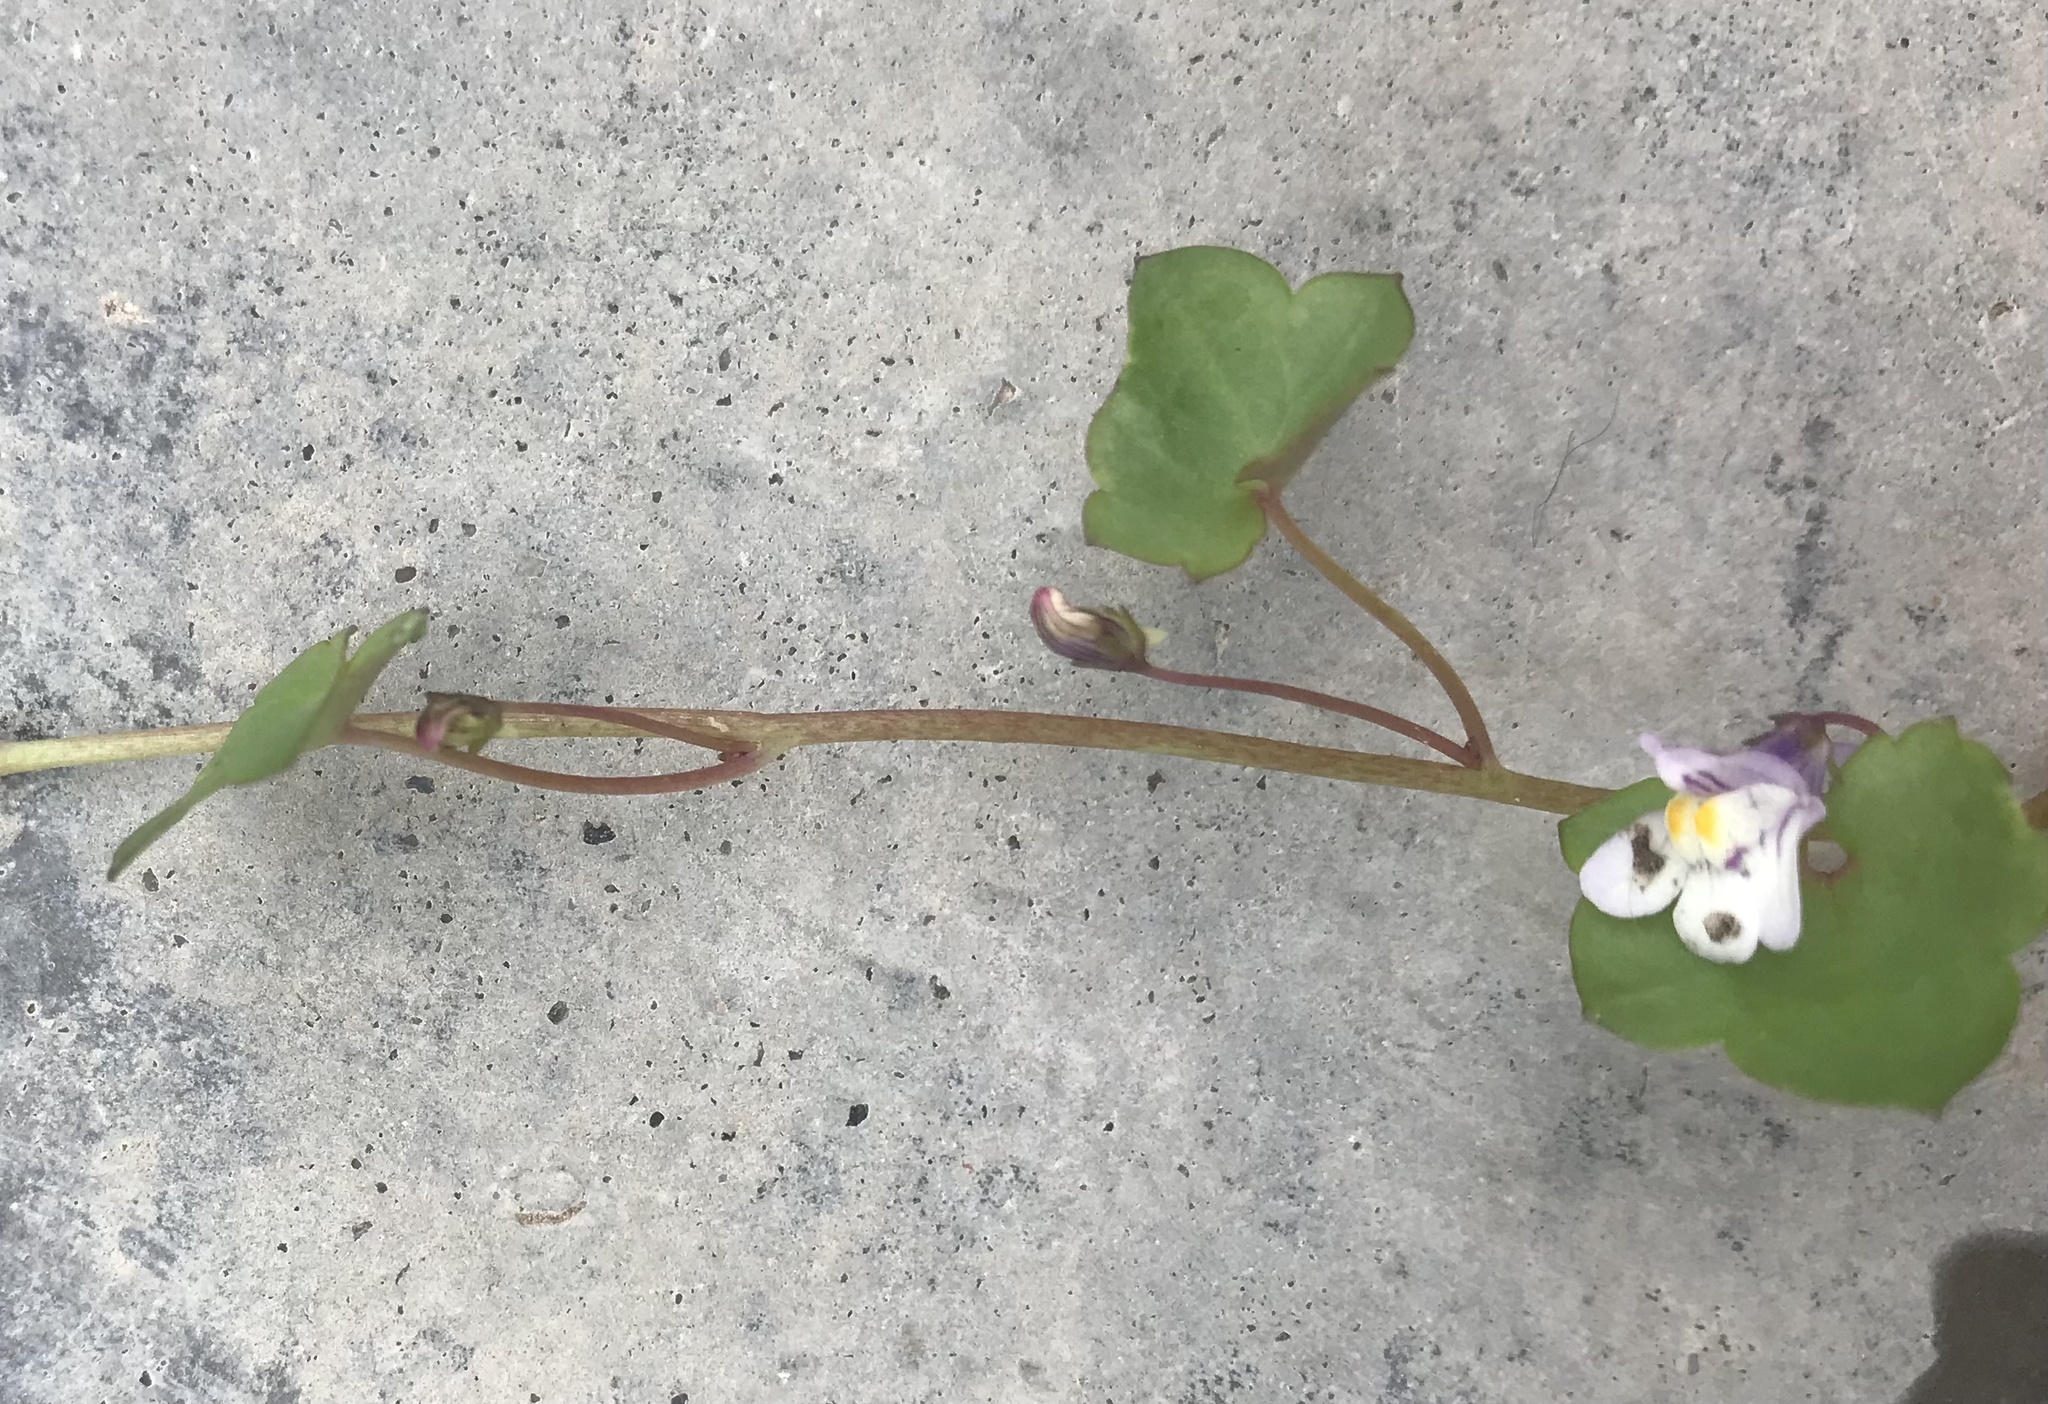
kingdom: Plantae
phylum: Tracheophyta
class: Magnoliopsida
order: Lamiales
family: Plantaginaceae
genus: Cymbalaria
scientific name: Cymbalaria muralis
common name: Ivy-leaved toadflax
